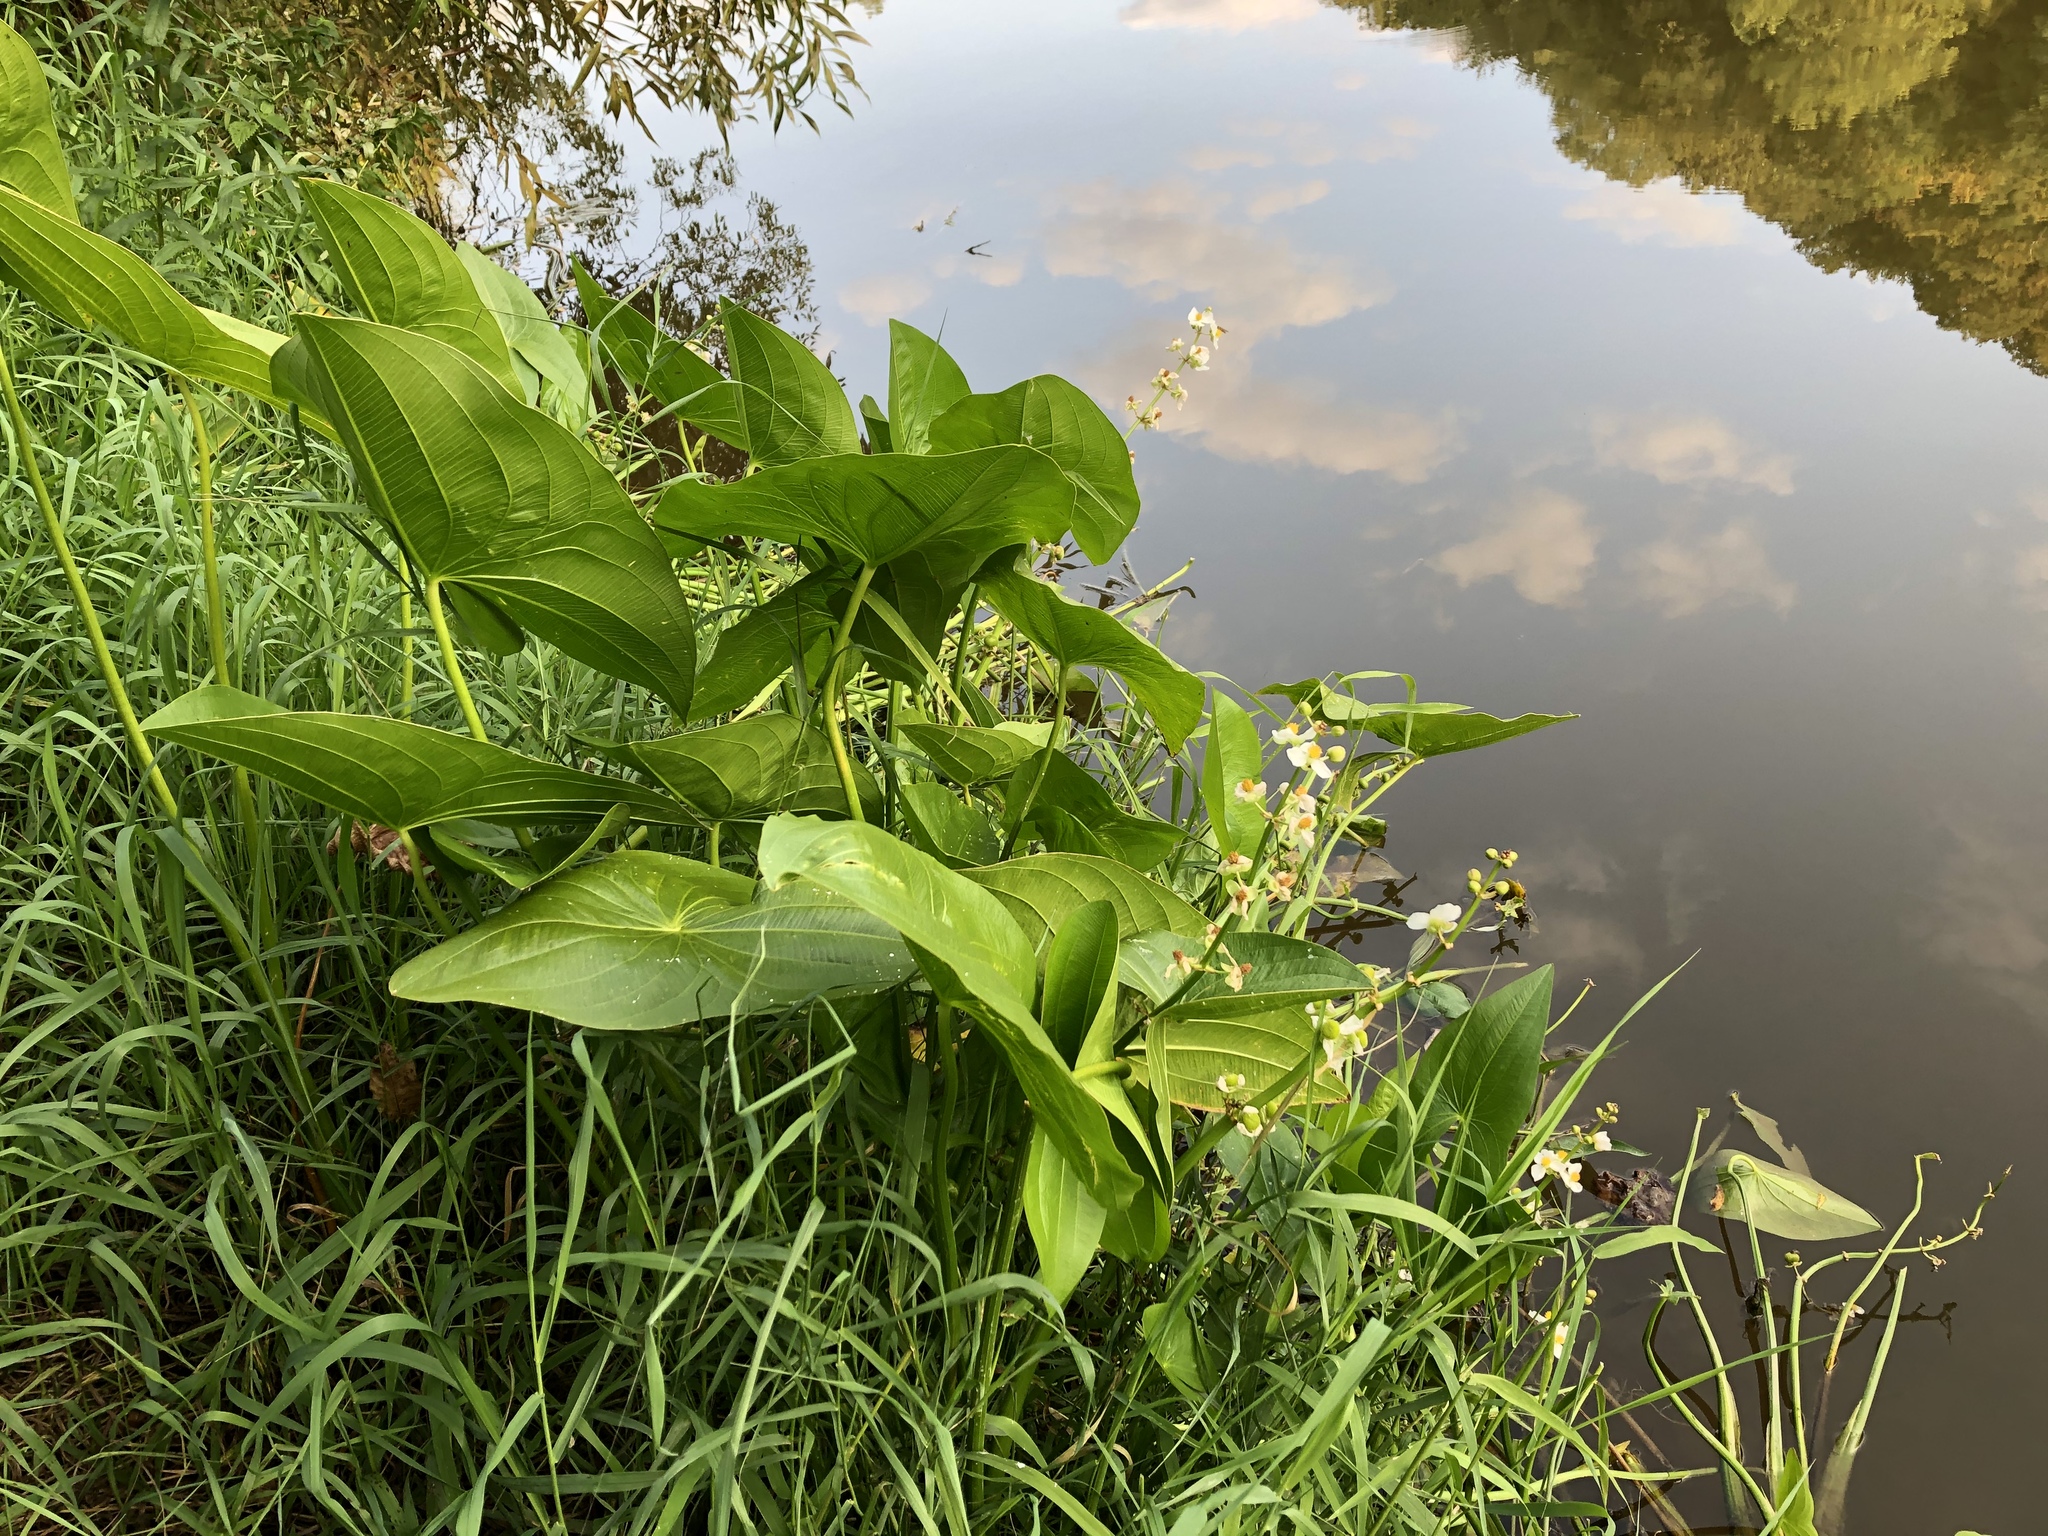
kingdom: Plantae
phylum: Tracheophyta
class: Liliopsida
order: Alismatales
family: Alismataceae
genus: Sagittaria
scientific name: Sagittaria latifolia
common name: Duck-potato
